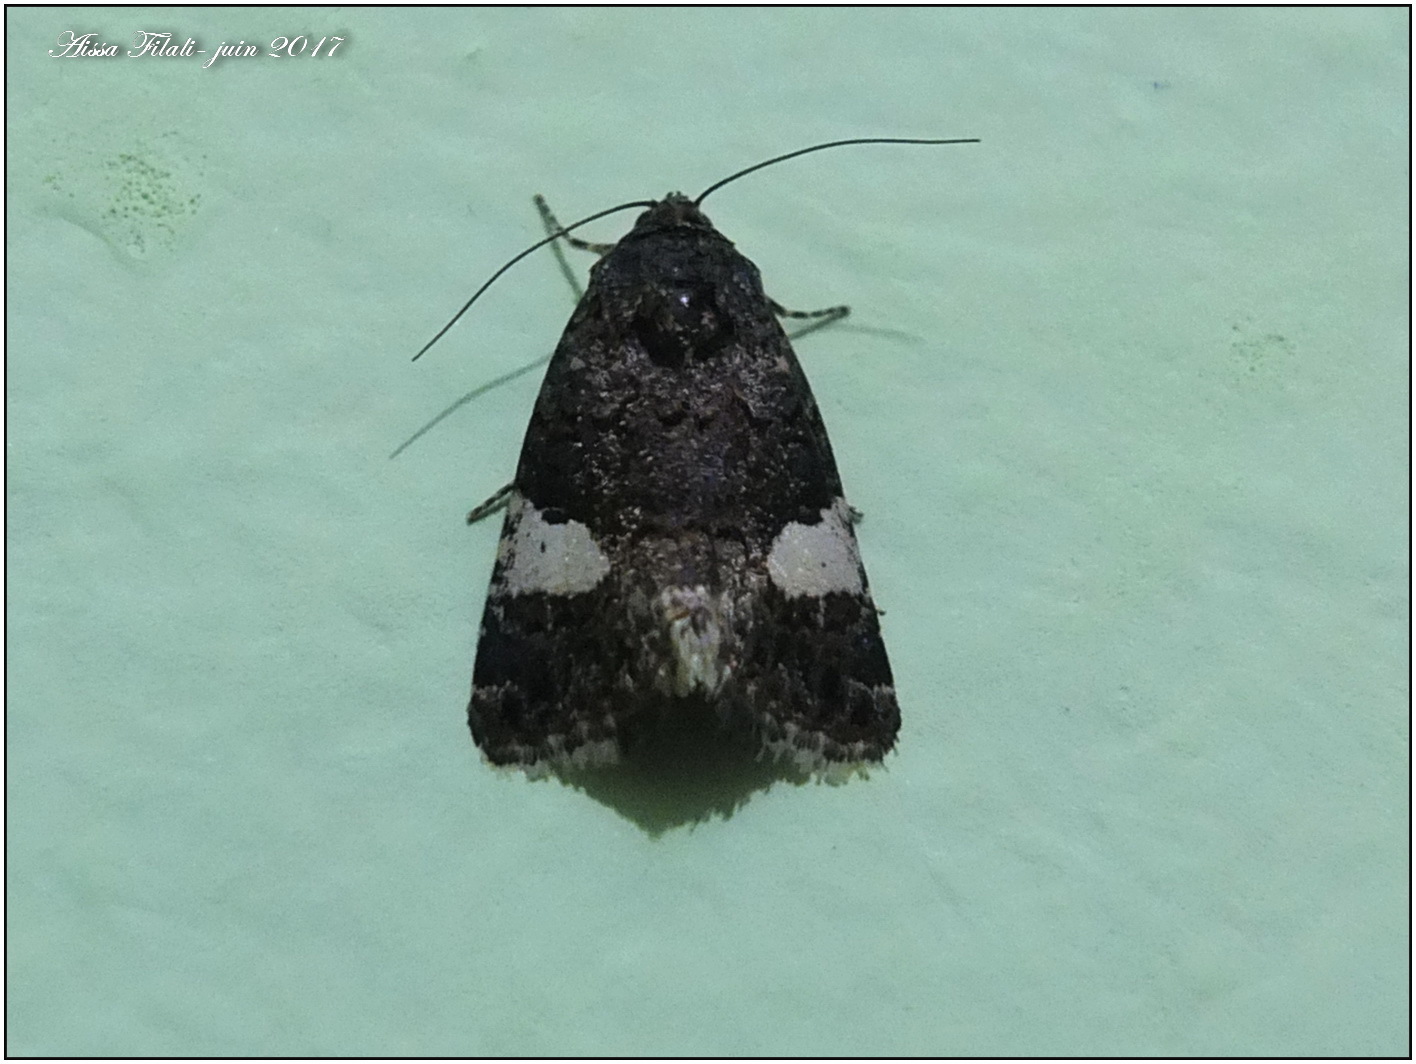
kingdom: Animalia
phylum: Arthropoda
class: Insecta
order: Lepidoptera
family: Erebidae
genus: Tyta
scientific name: Tyta luctuosa
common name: Four-spotted
